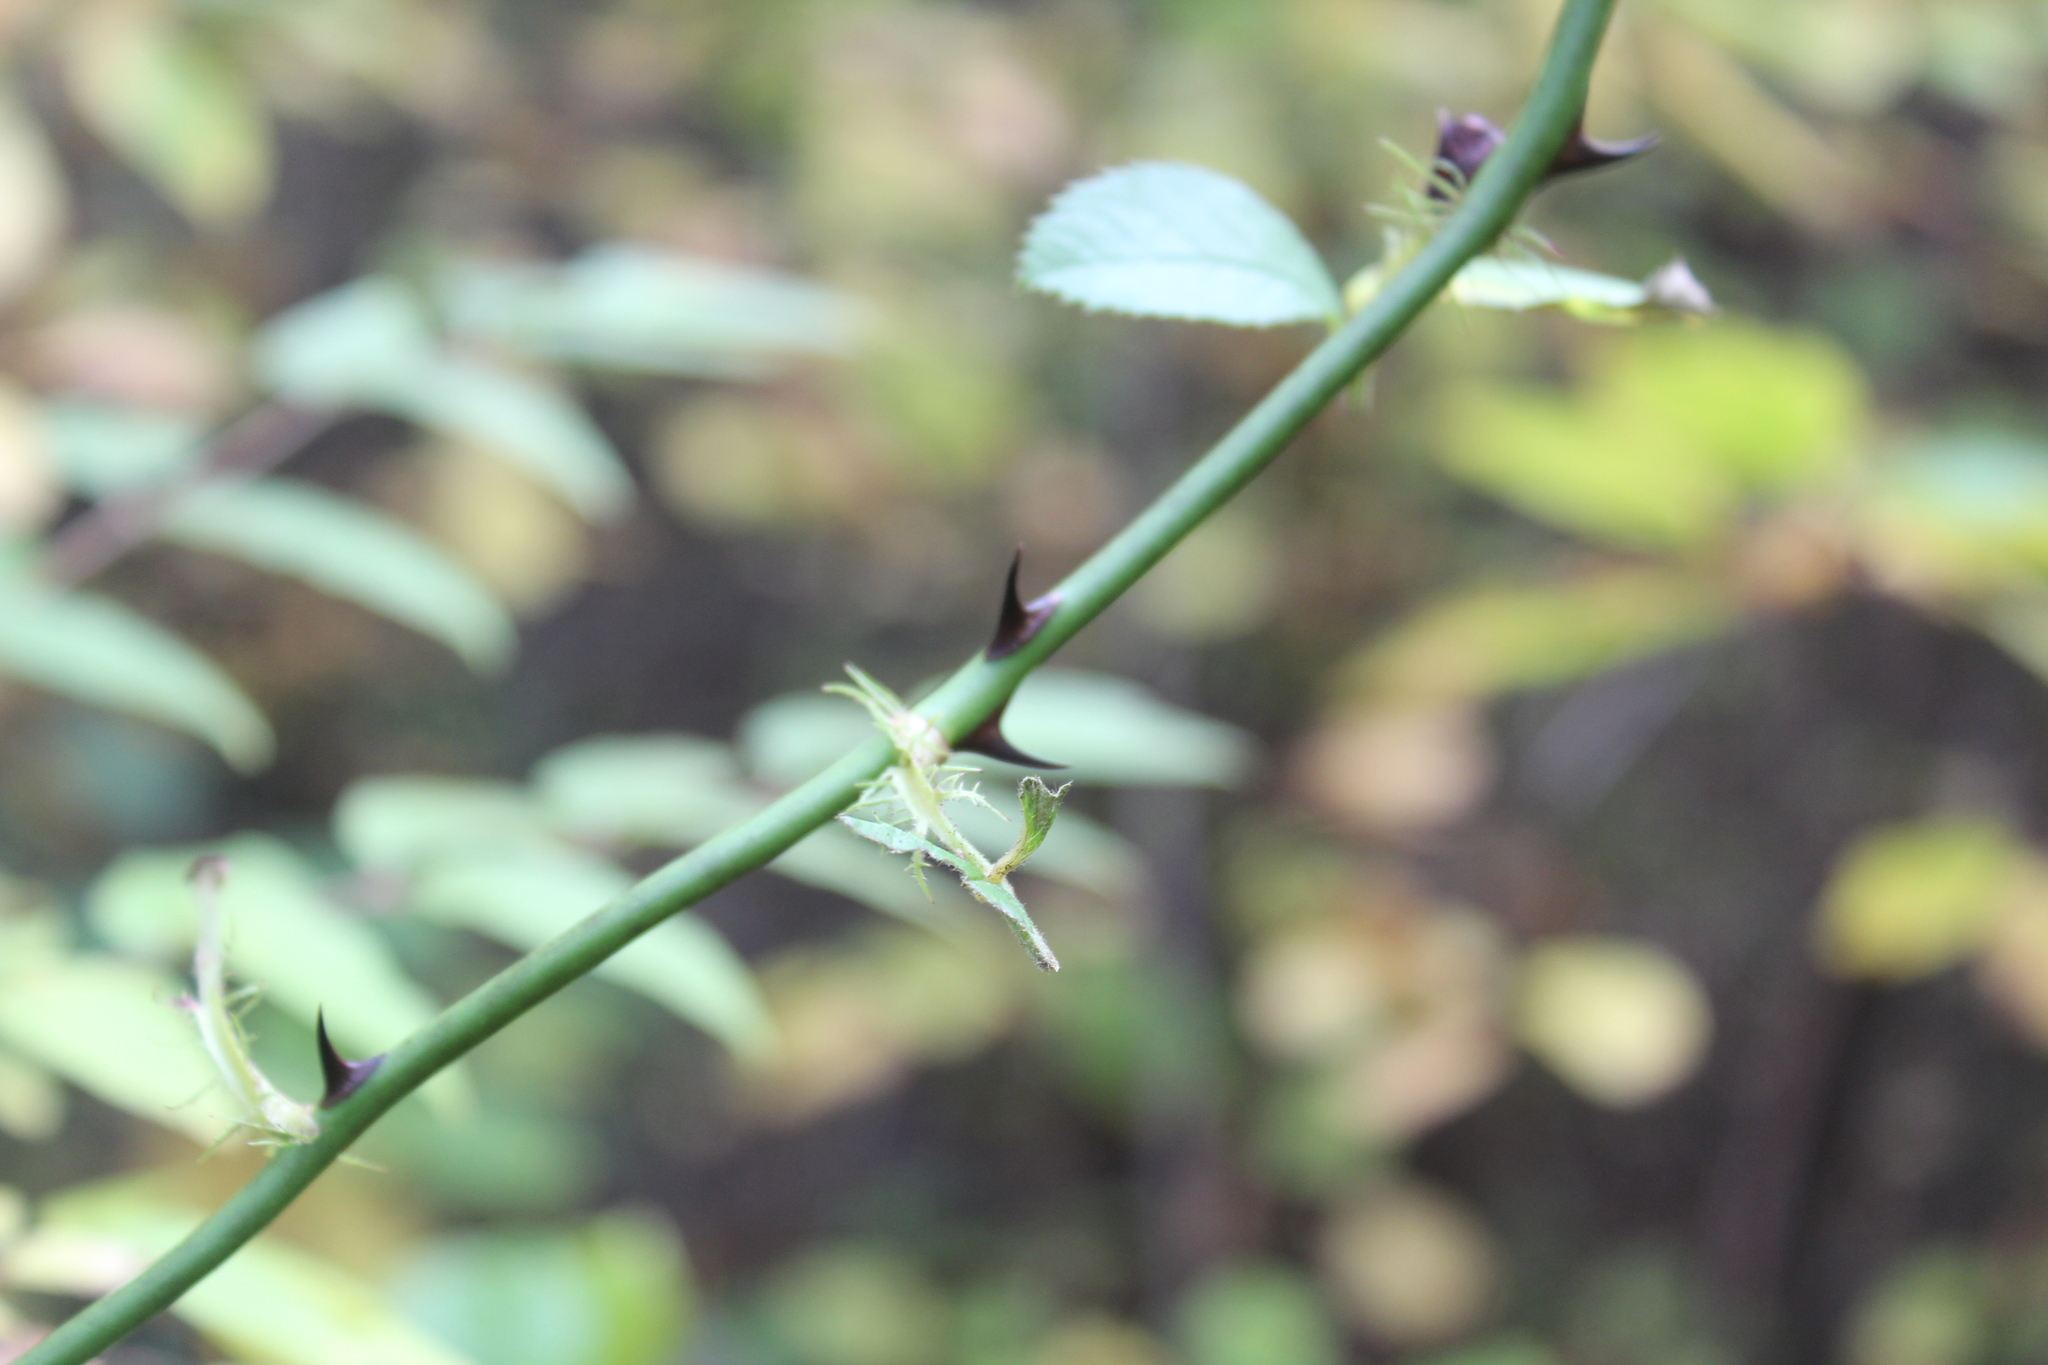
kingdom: Plantae
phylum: Tracheophyta
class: Magnoliopsida
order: Rosales
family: Rosaceae
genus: Rosa
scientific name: Rosa multiflora
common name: Multiflora rose
